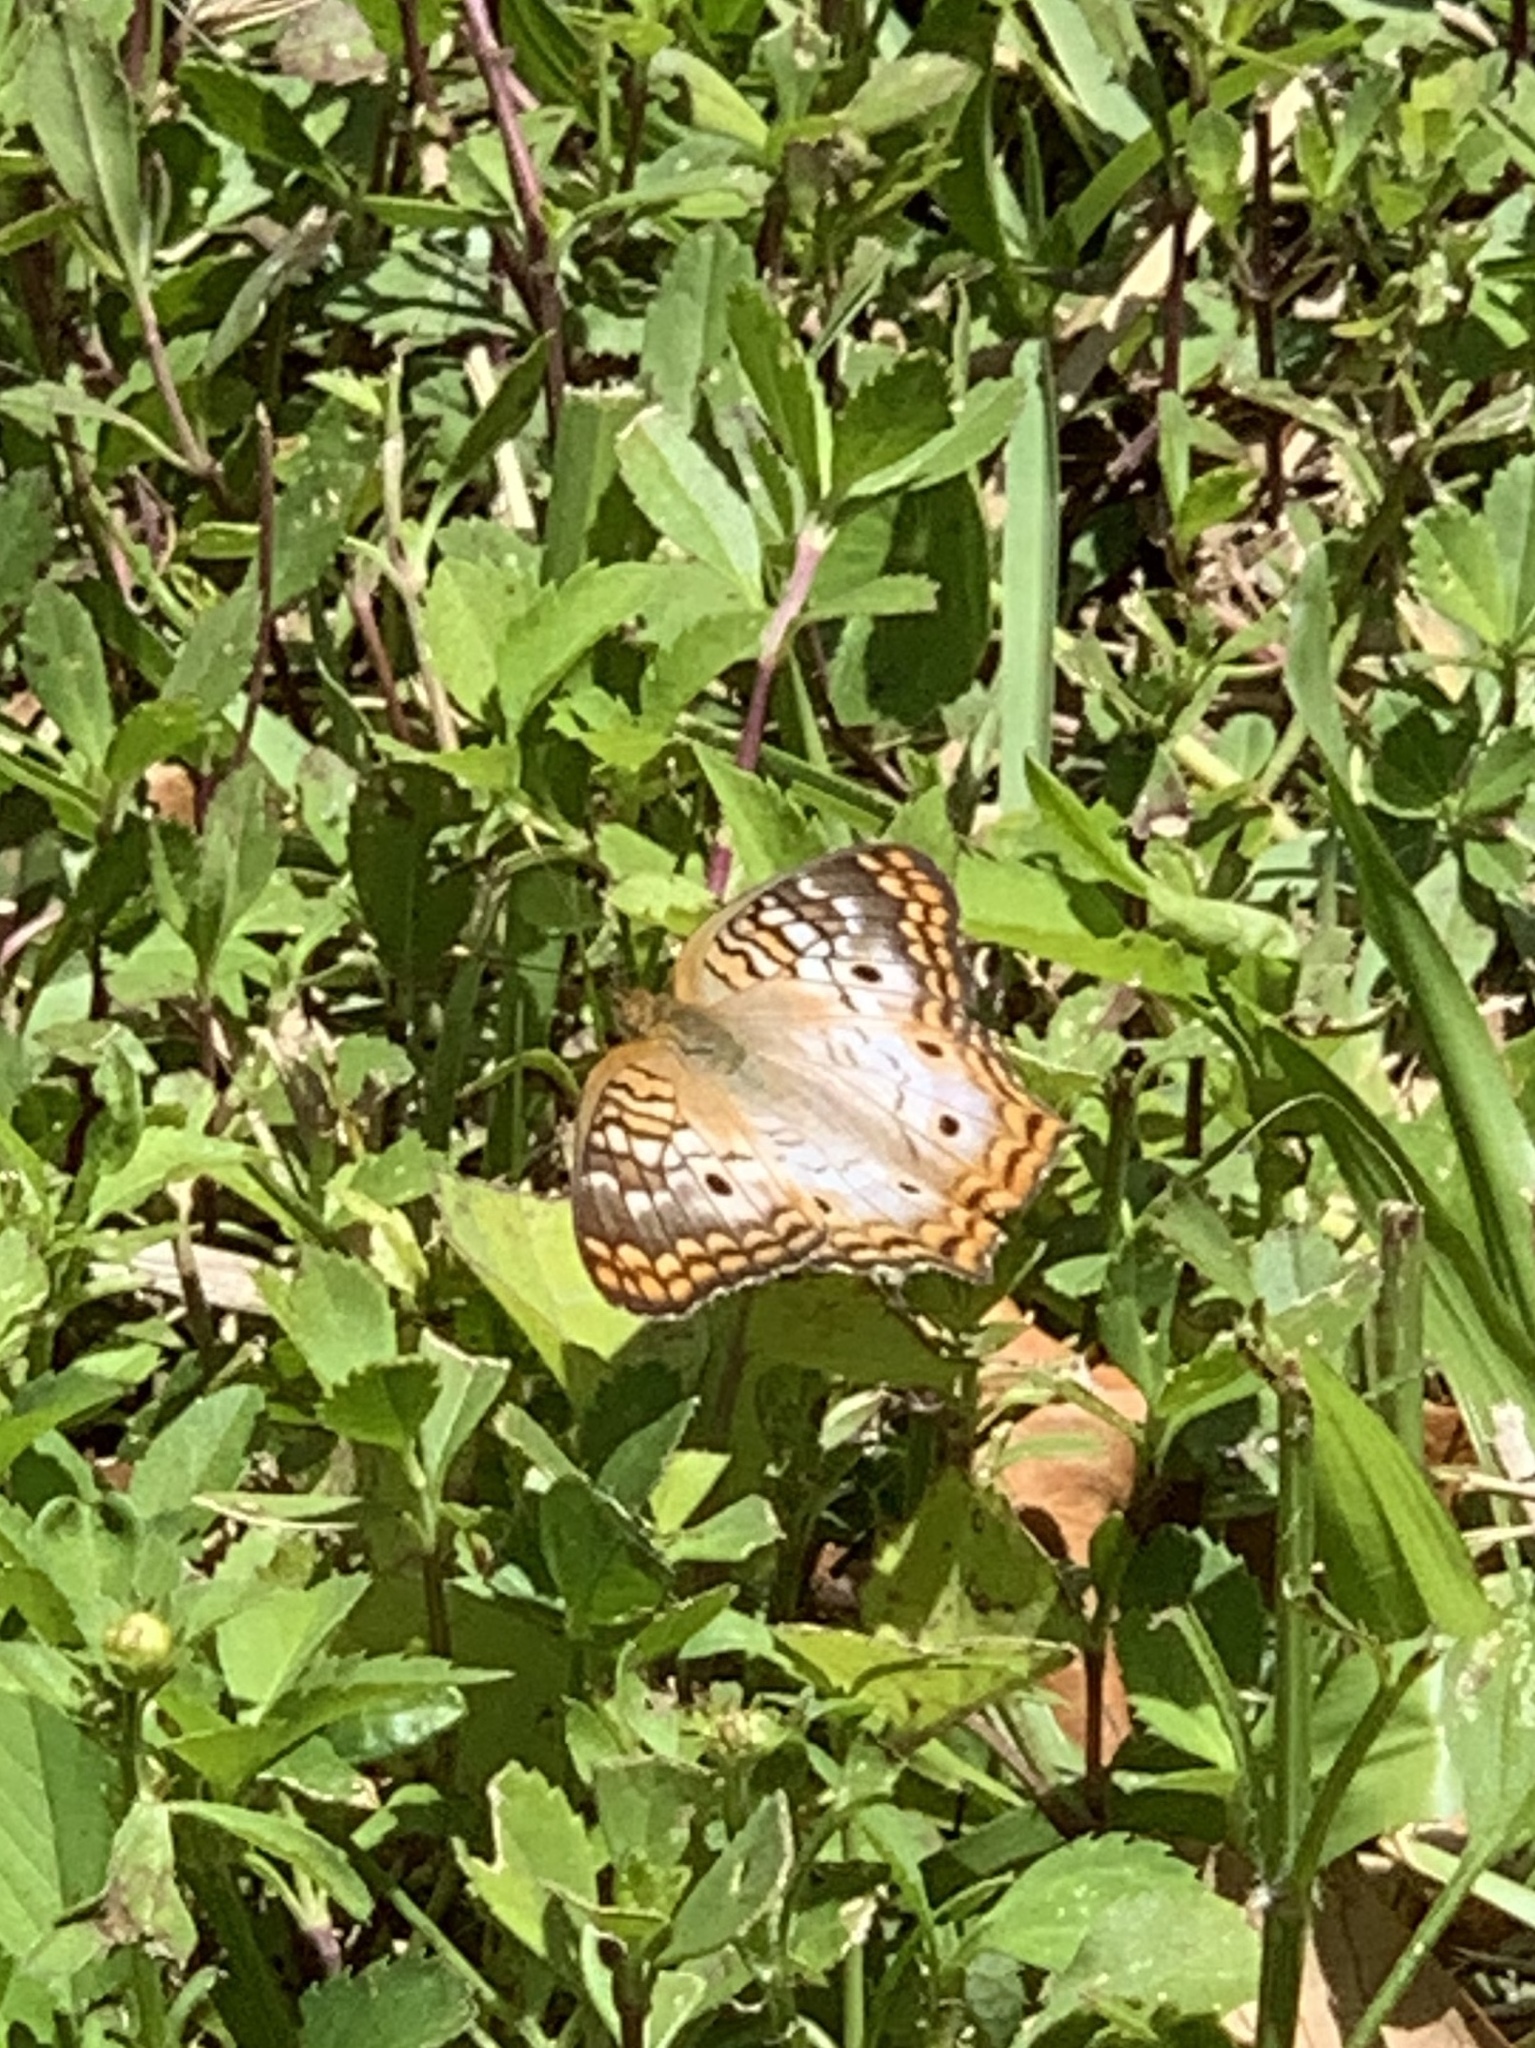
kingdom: Animalia
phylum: Arthropoda
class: Insecta
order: Lepidoptera
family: Nymphalidae
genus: Anartia
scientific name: Anartia jatrophae
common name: White peacock
